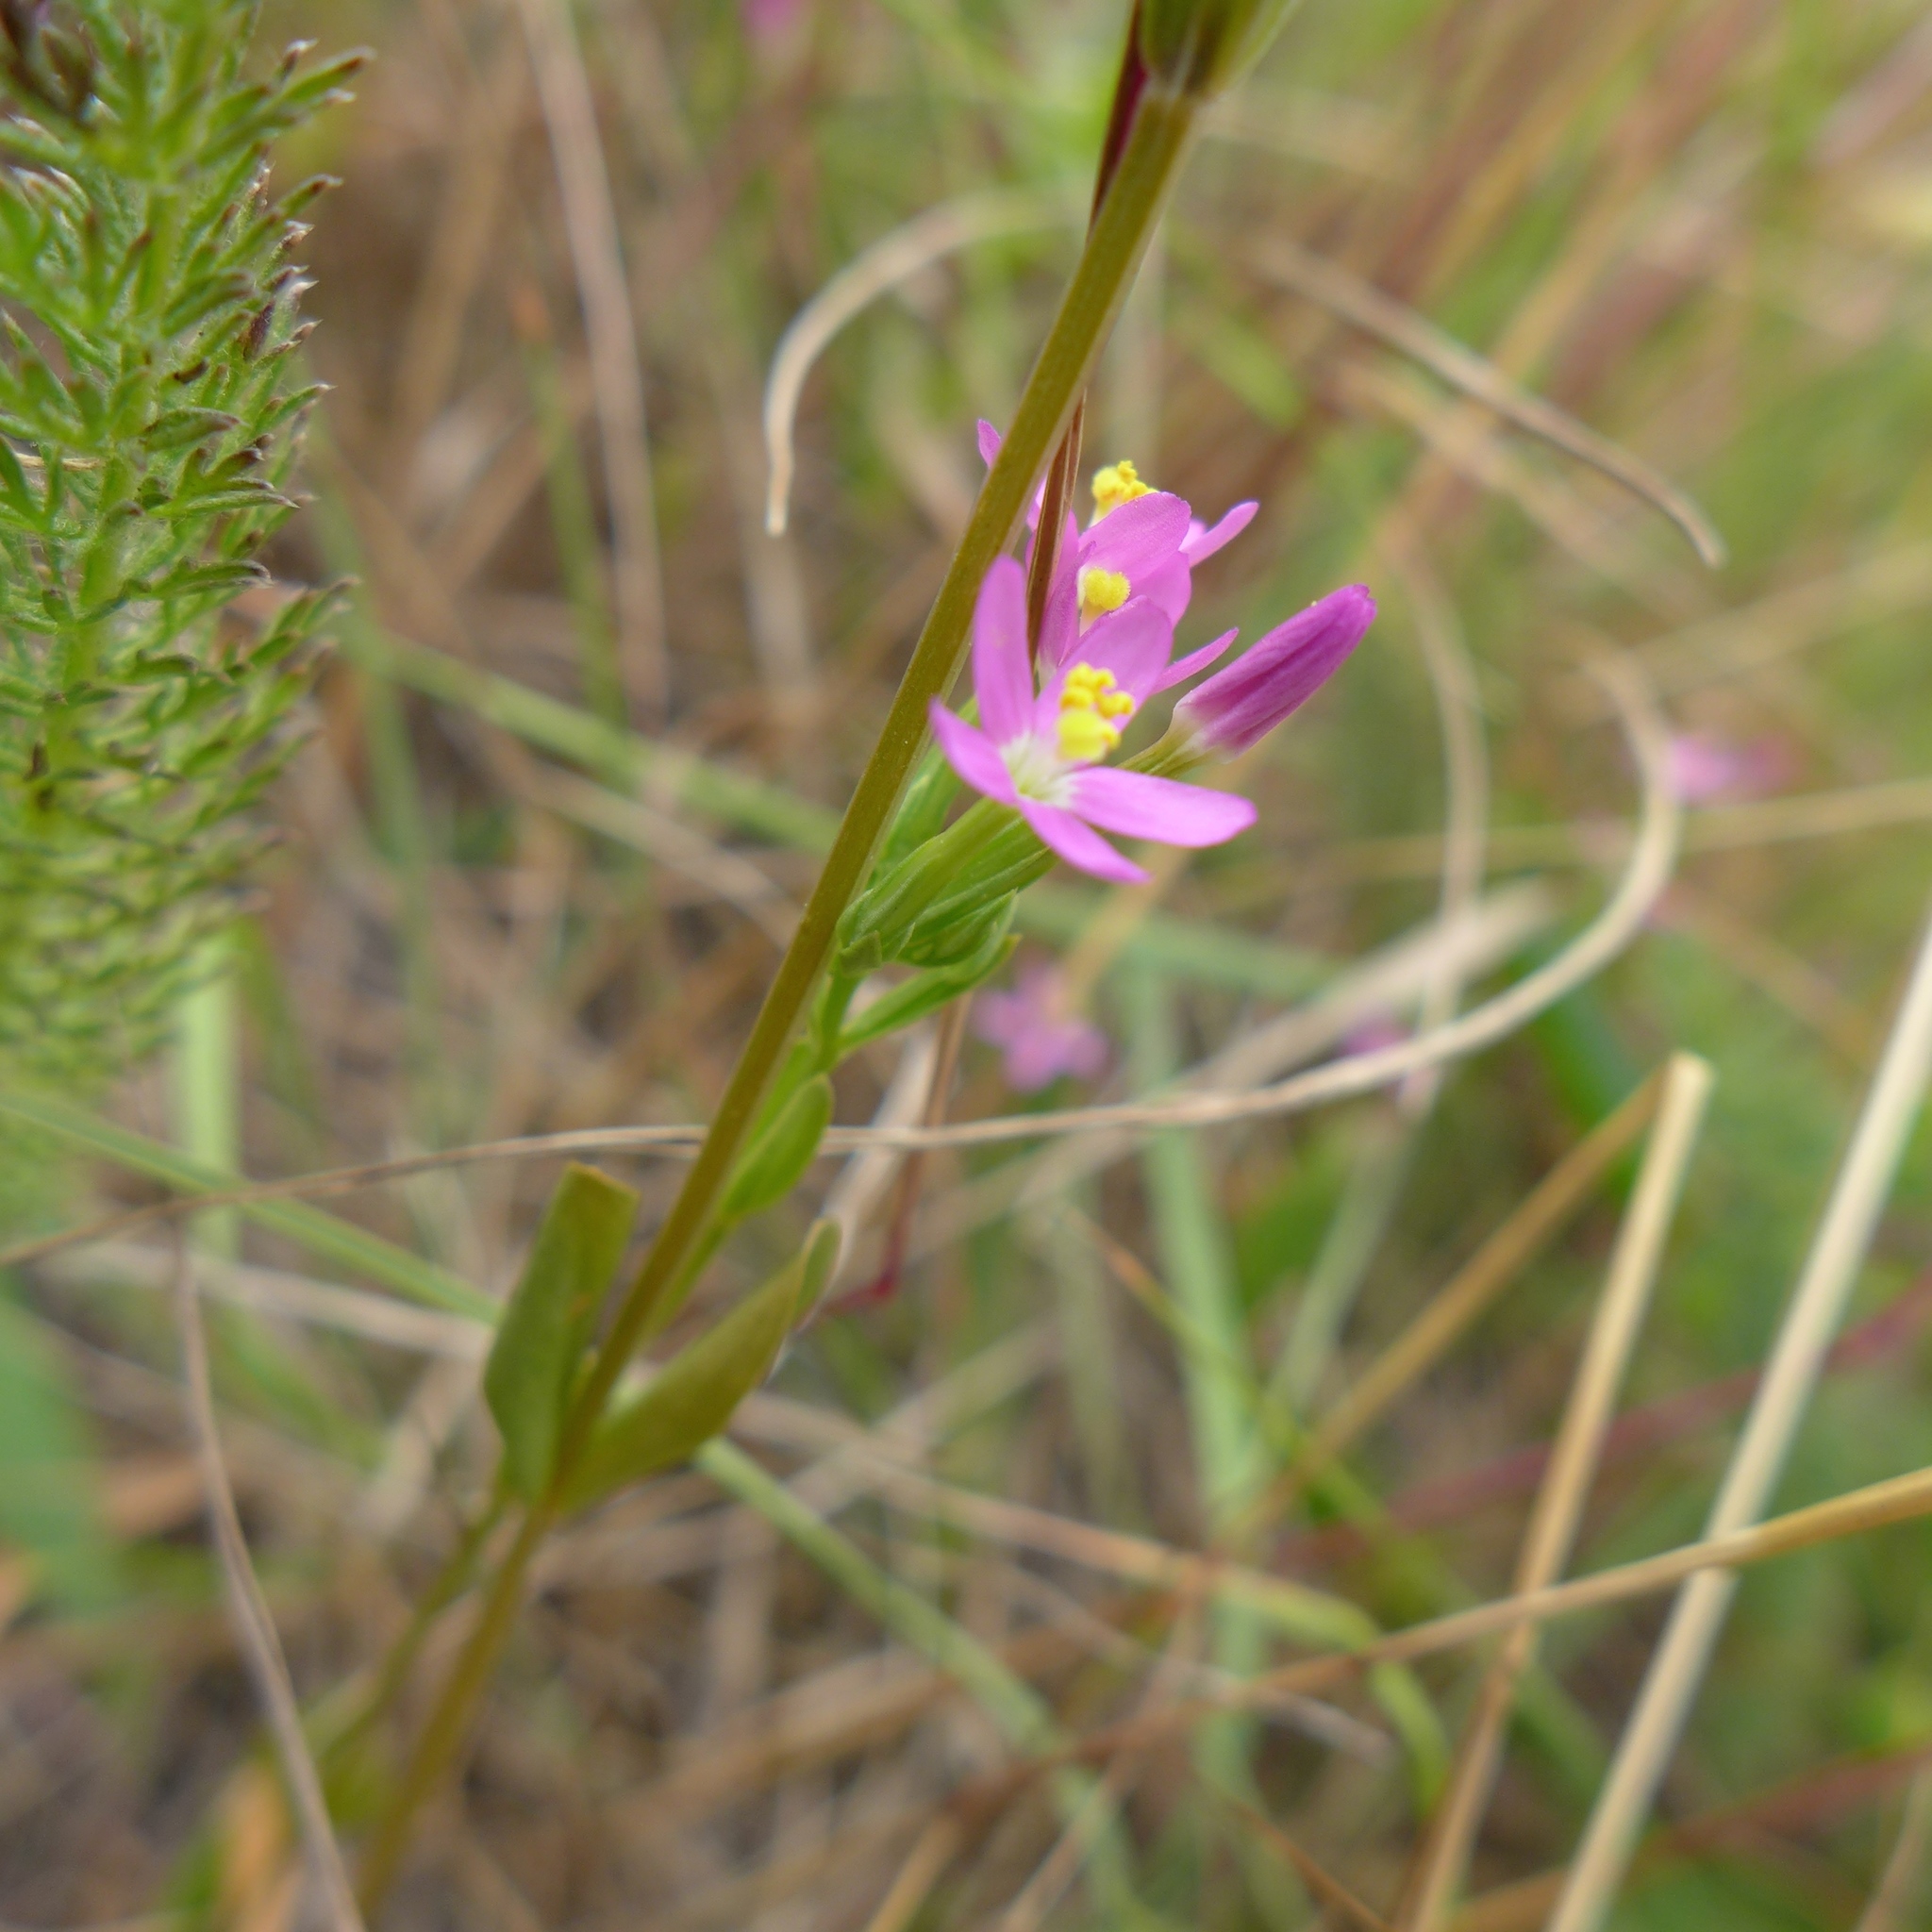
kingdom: Plantae
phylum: Tracheophyta
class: Magnoliopsida
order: Gentianales
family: Gentianaceae
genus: Zeltnera
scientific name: Zeltnera muhlenbergii
